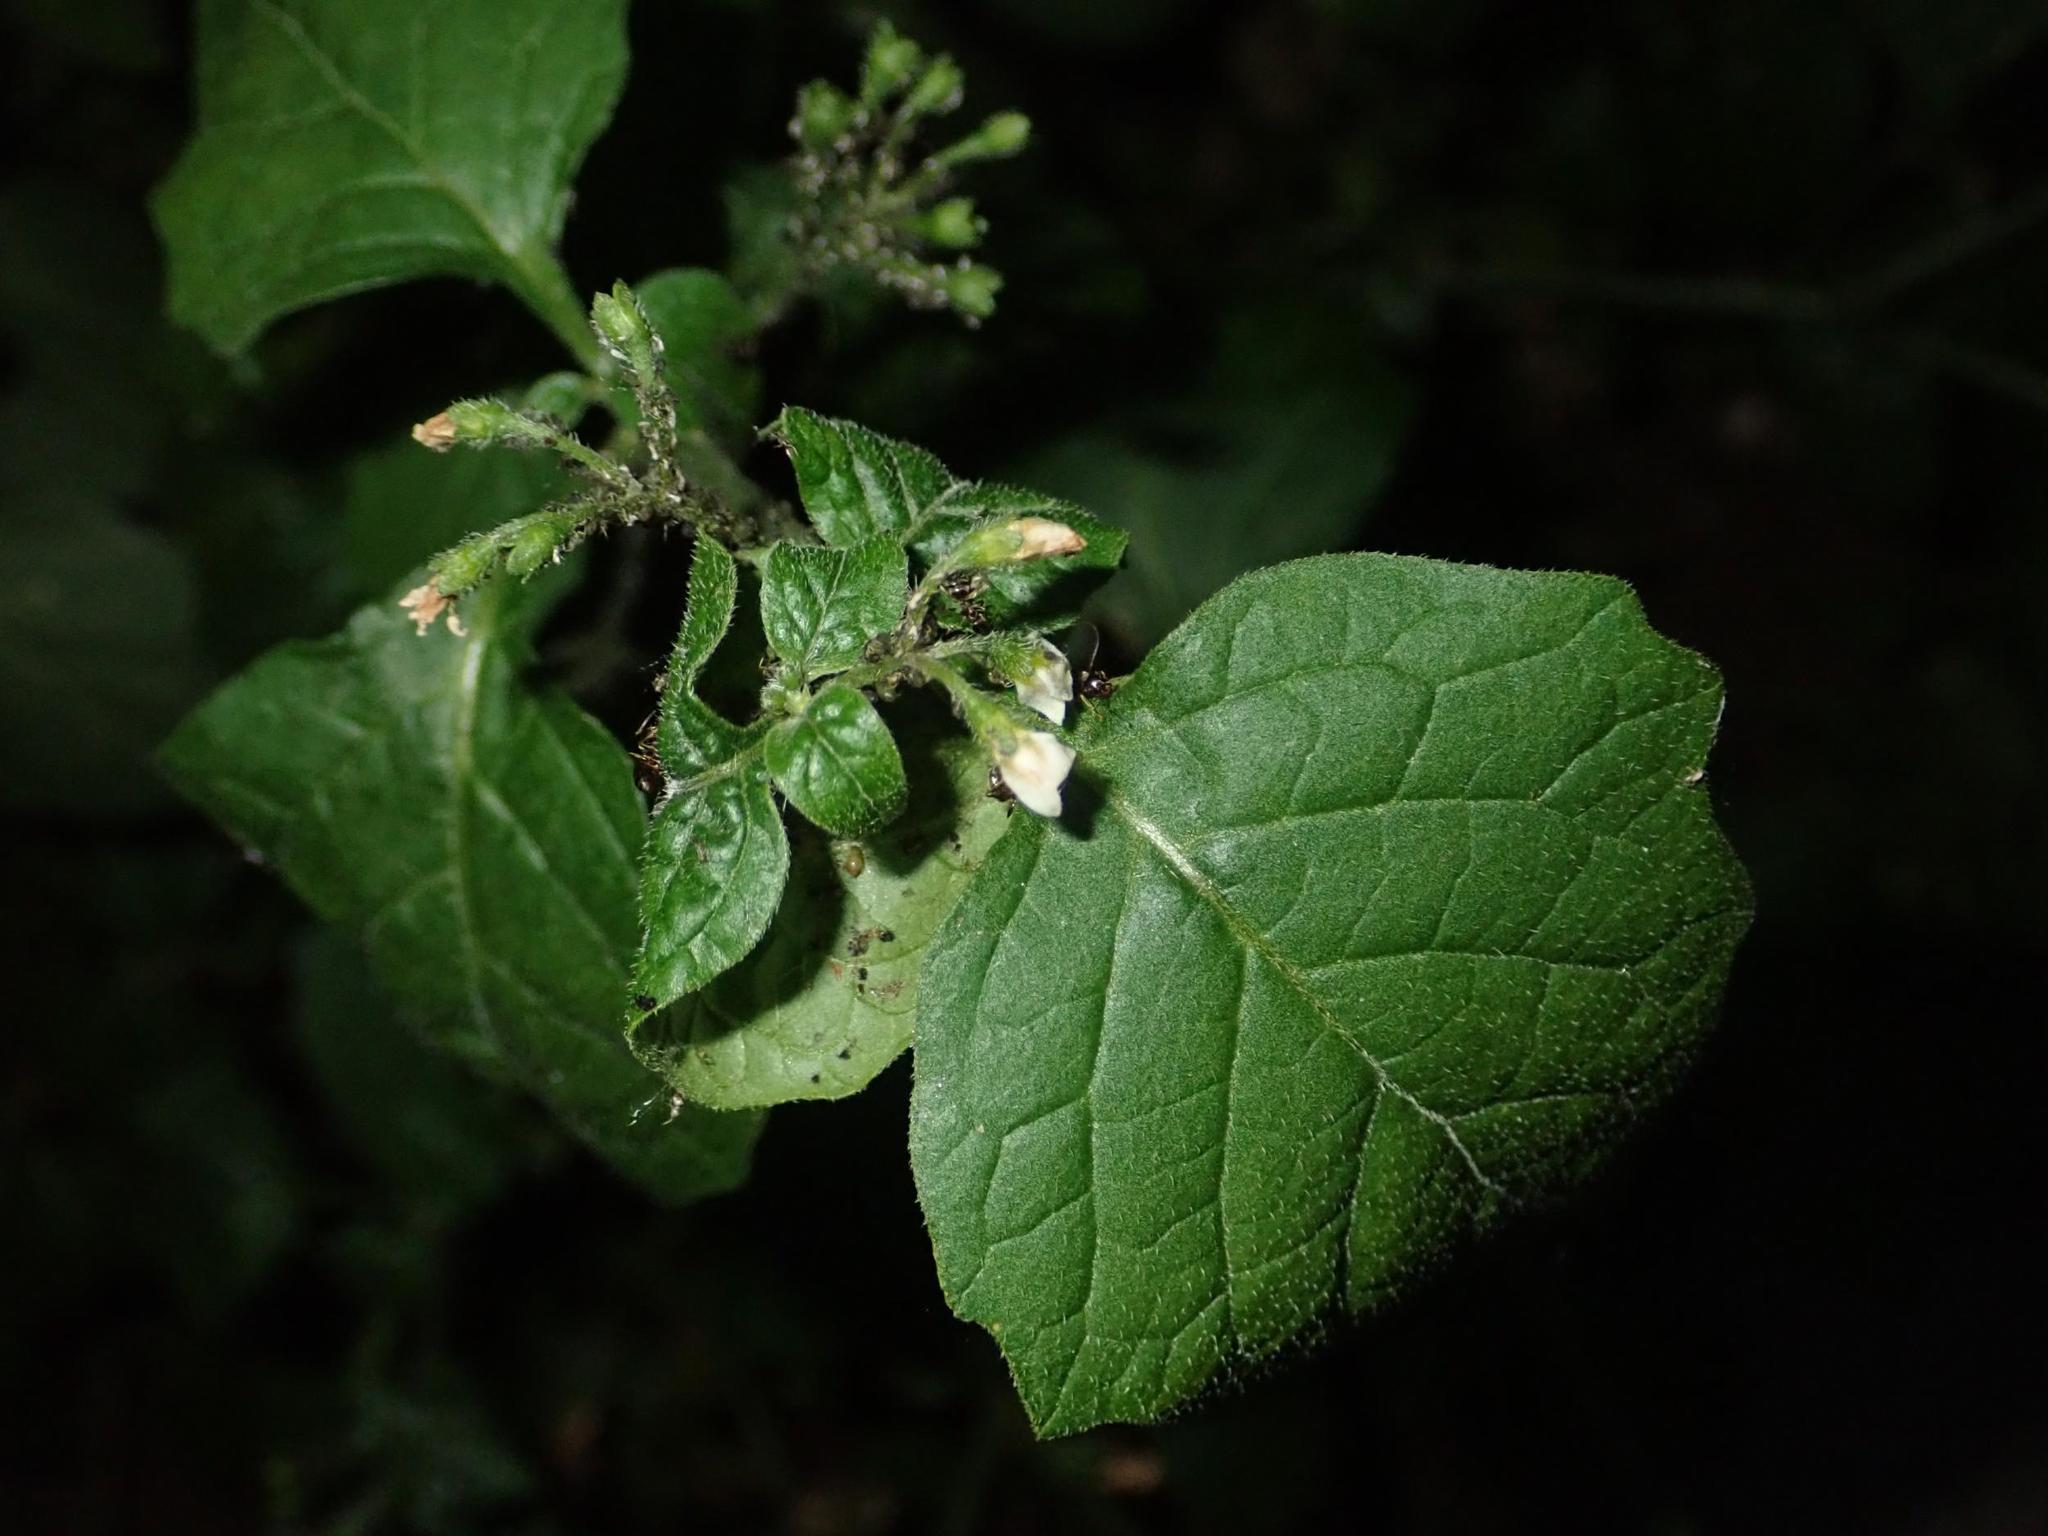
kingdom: Plantae
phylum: Tracheophyta
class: Magnoliopsida
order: Solanales
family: Solanaceae
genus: Solanum
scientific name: Solanum nigrum
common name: Black nightshade
